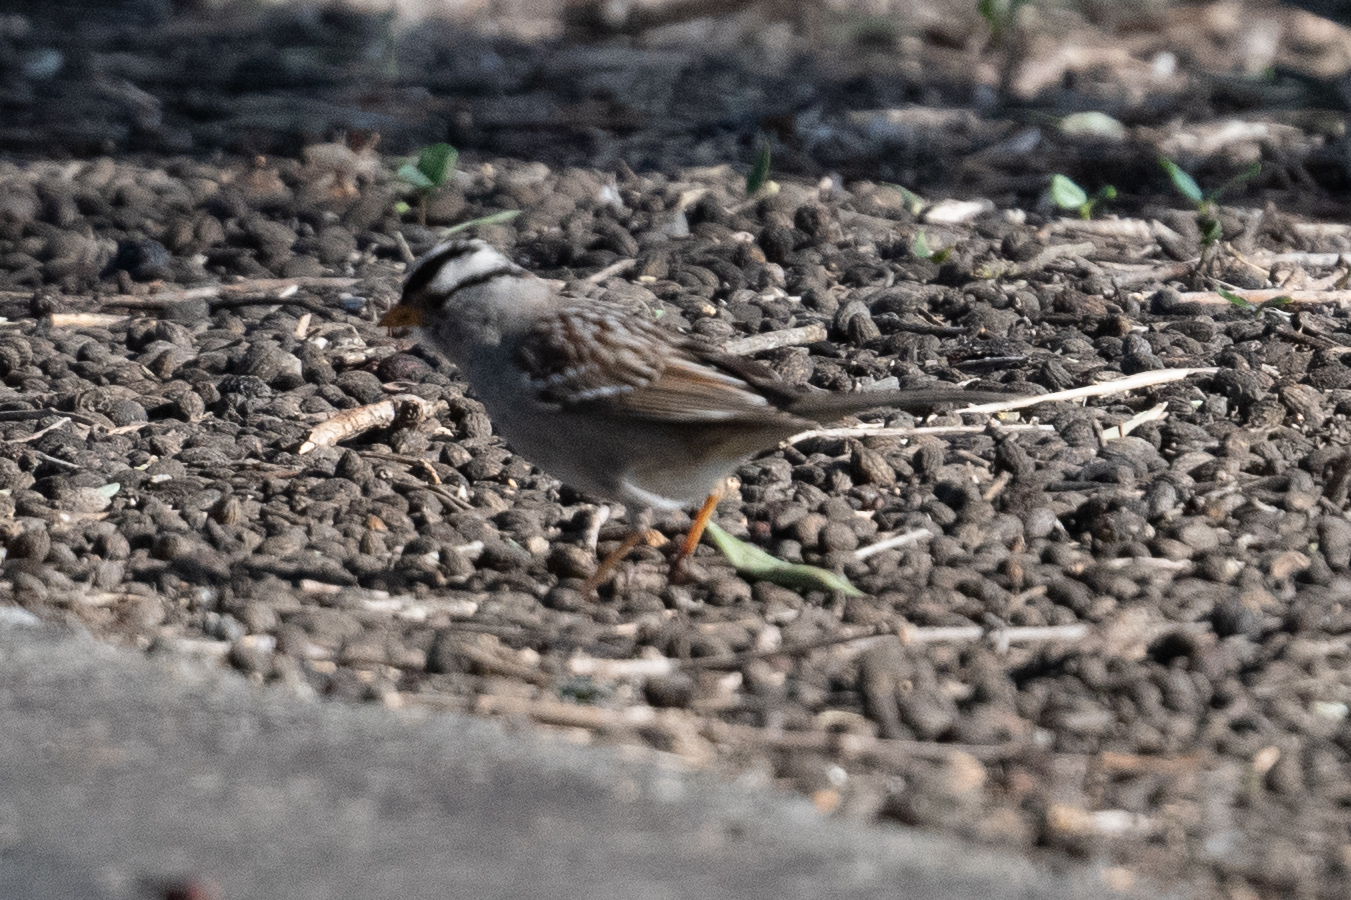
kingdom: Animalia
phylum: Chordata
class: Aves
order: Passeriformes
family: Passerellidae
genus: Zonotrichia
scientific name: Zonotrichia leucophrys
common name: White-crowned sparrow
